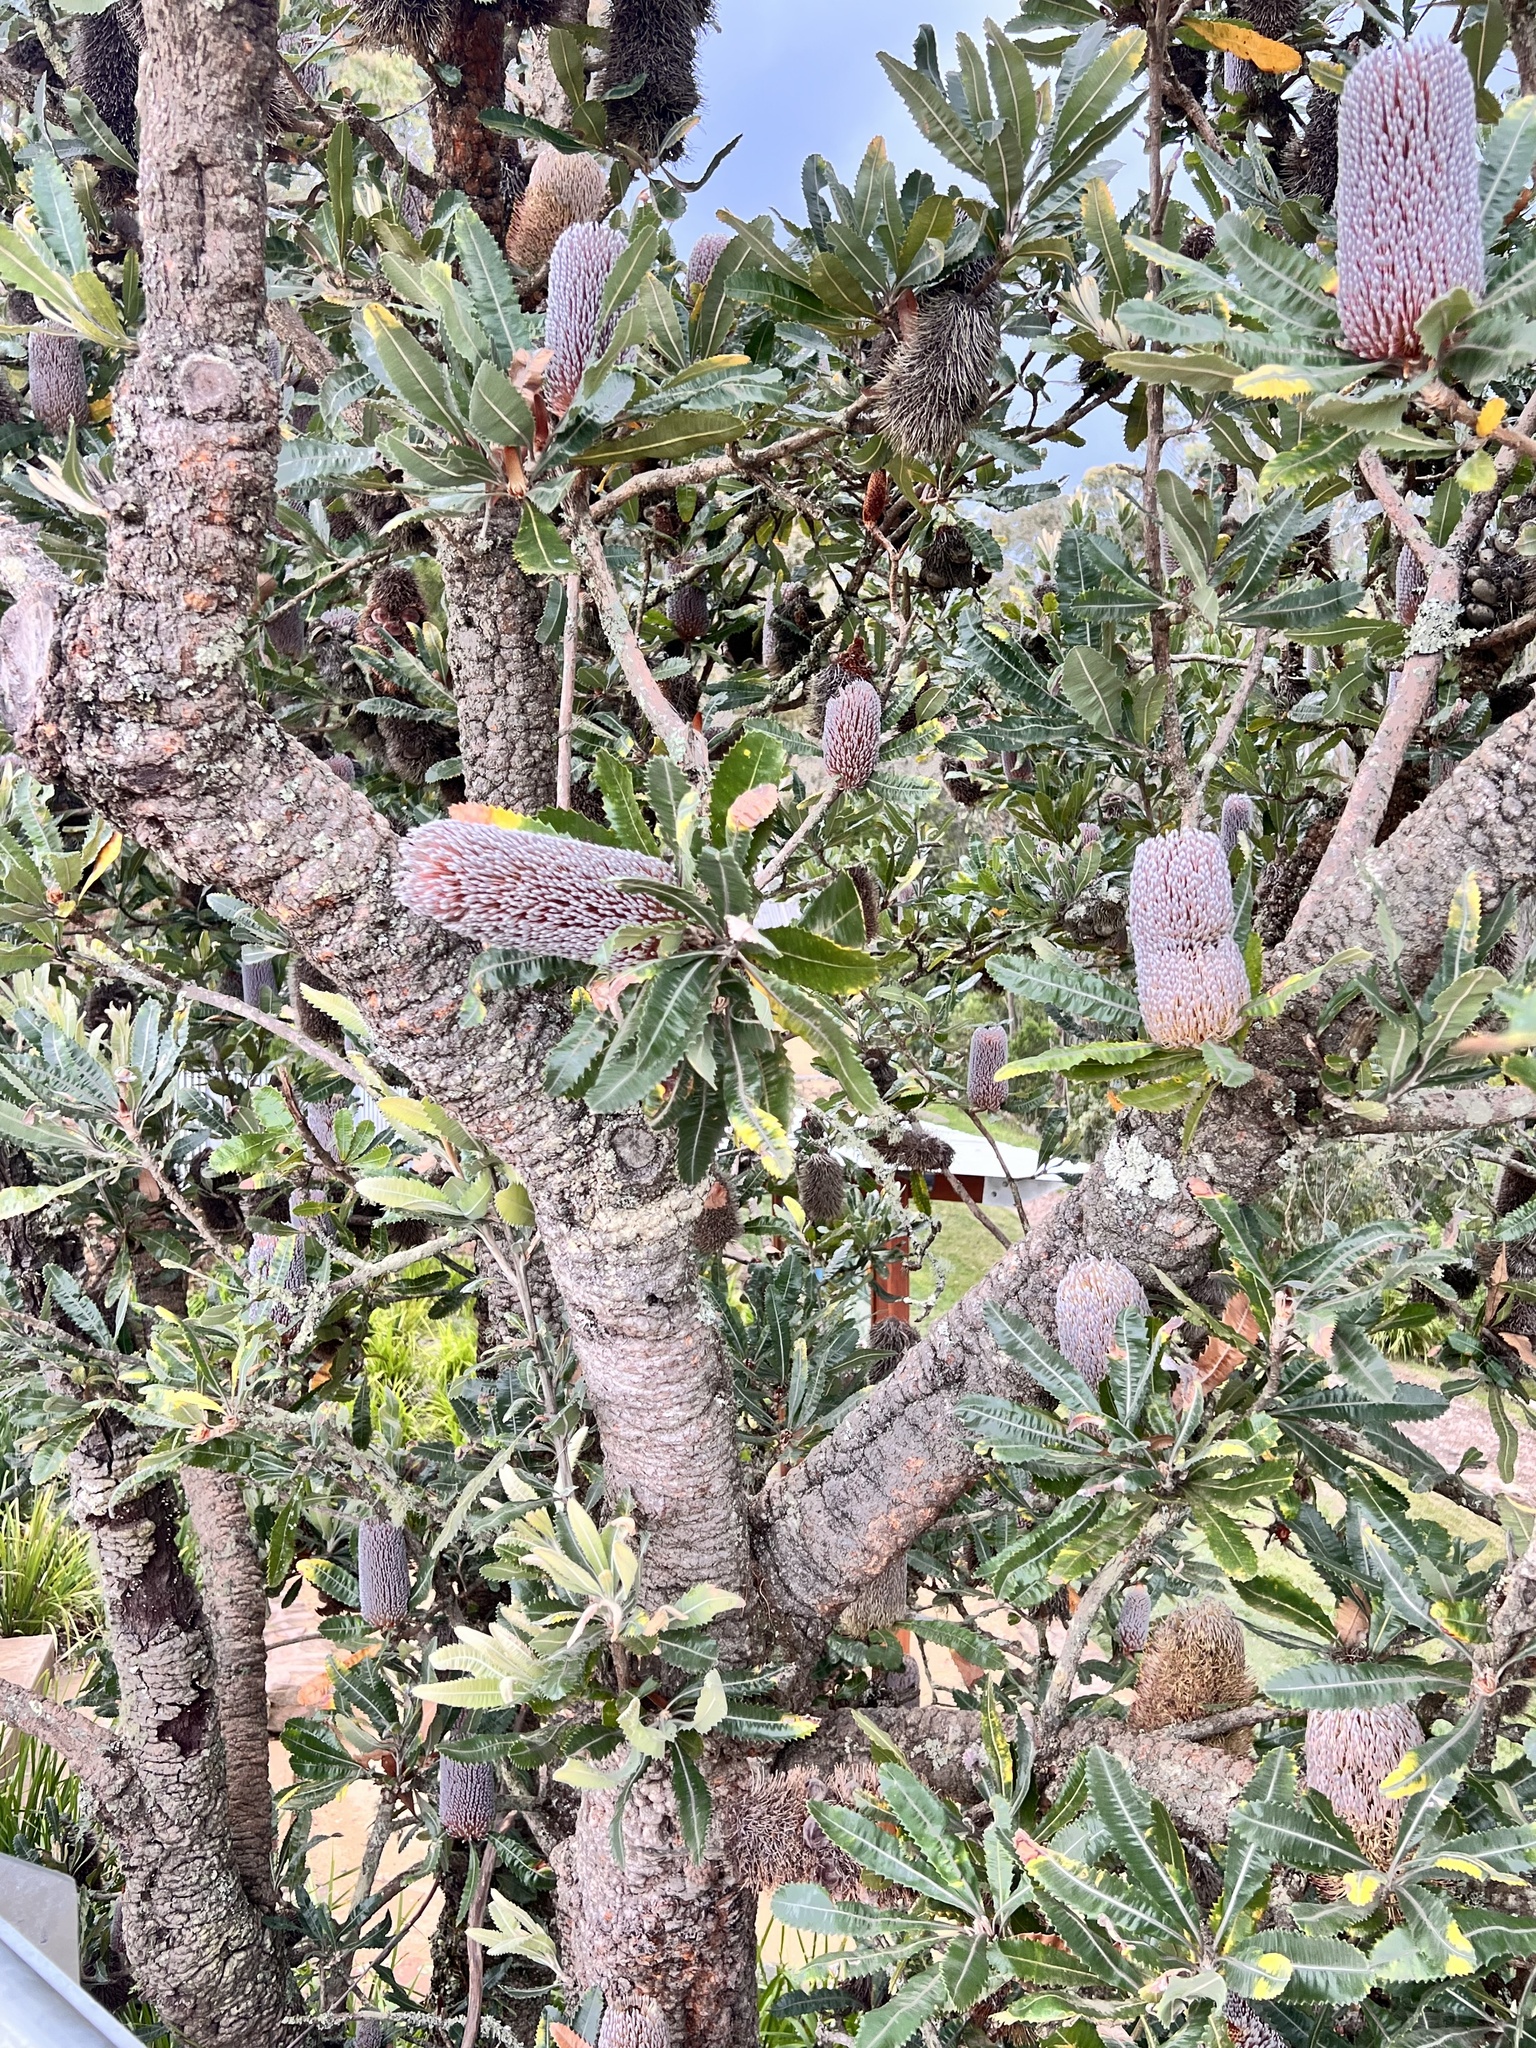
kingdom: Plantae
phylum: Tracheophyta
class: Magnoliopsida
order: Proteales
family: Proteaceae
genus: Banksia
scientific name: Banksia serrata
